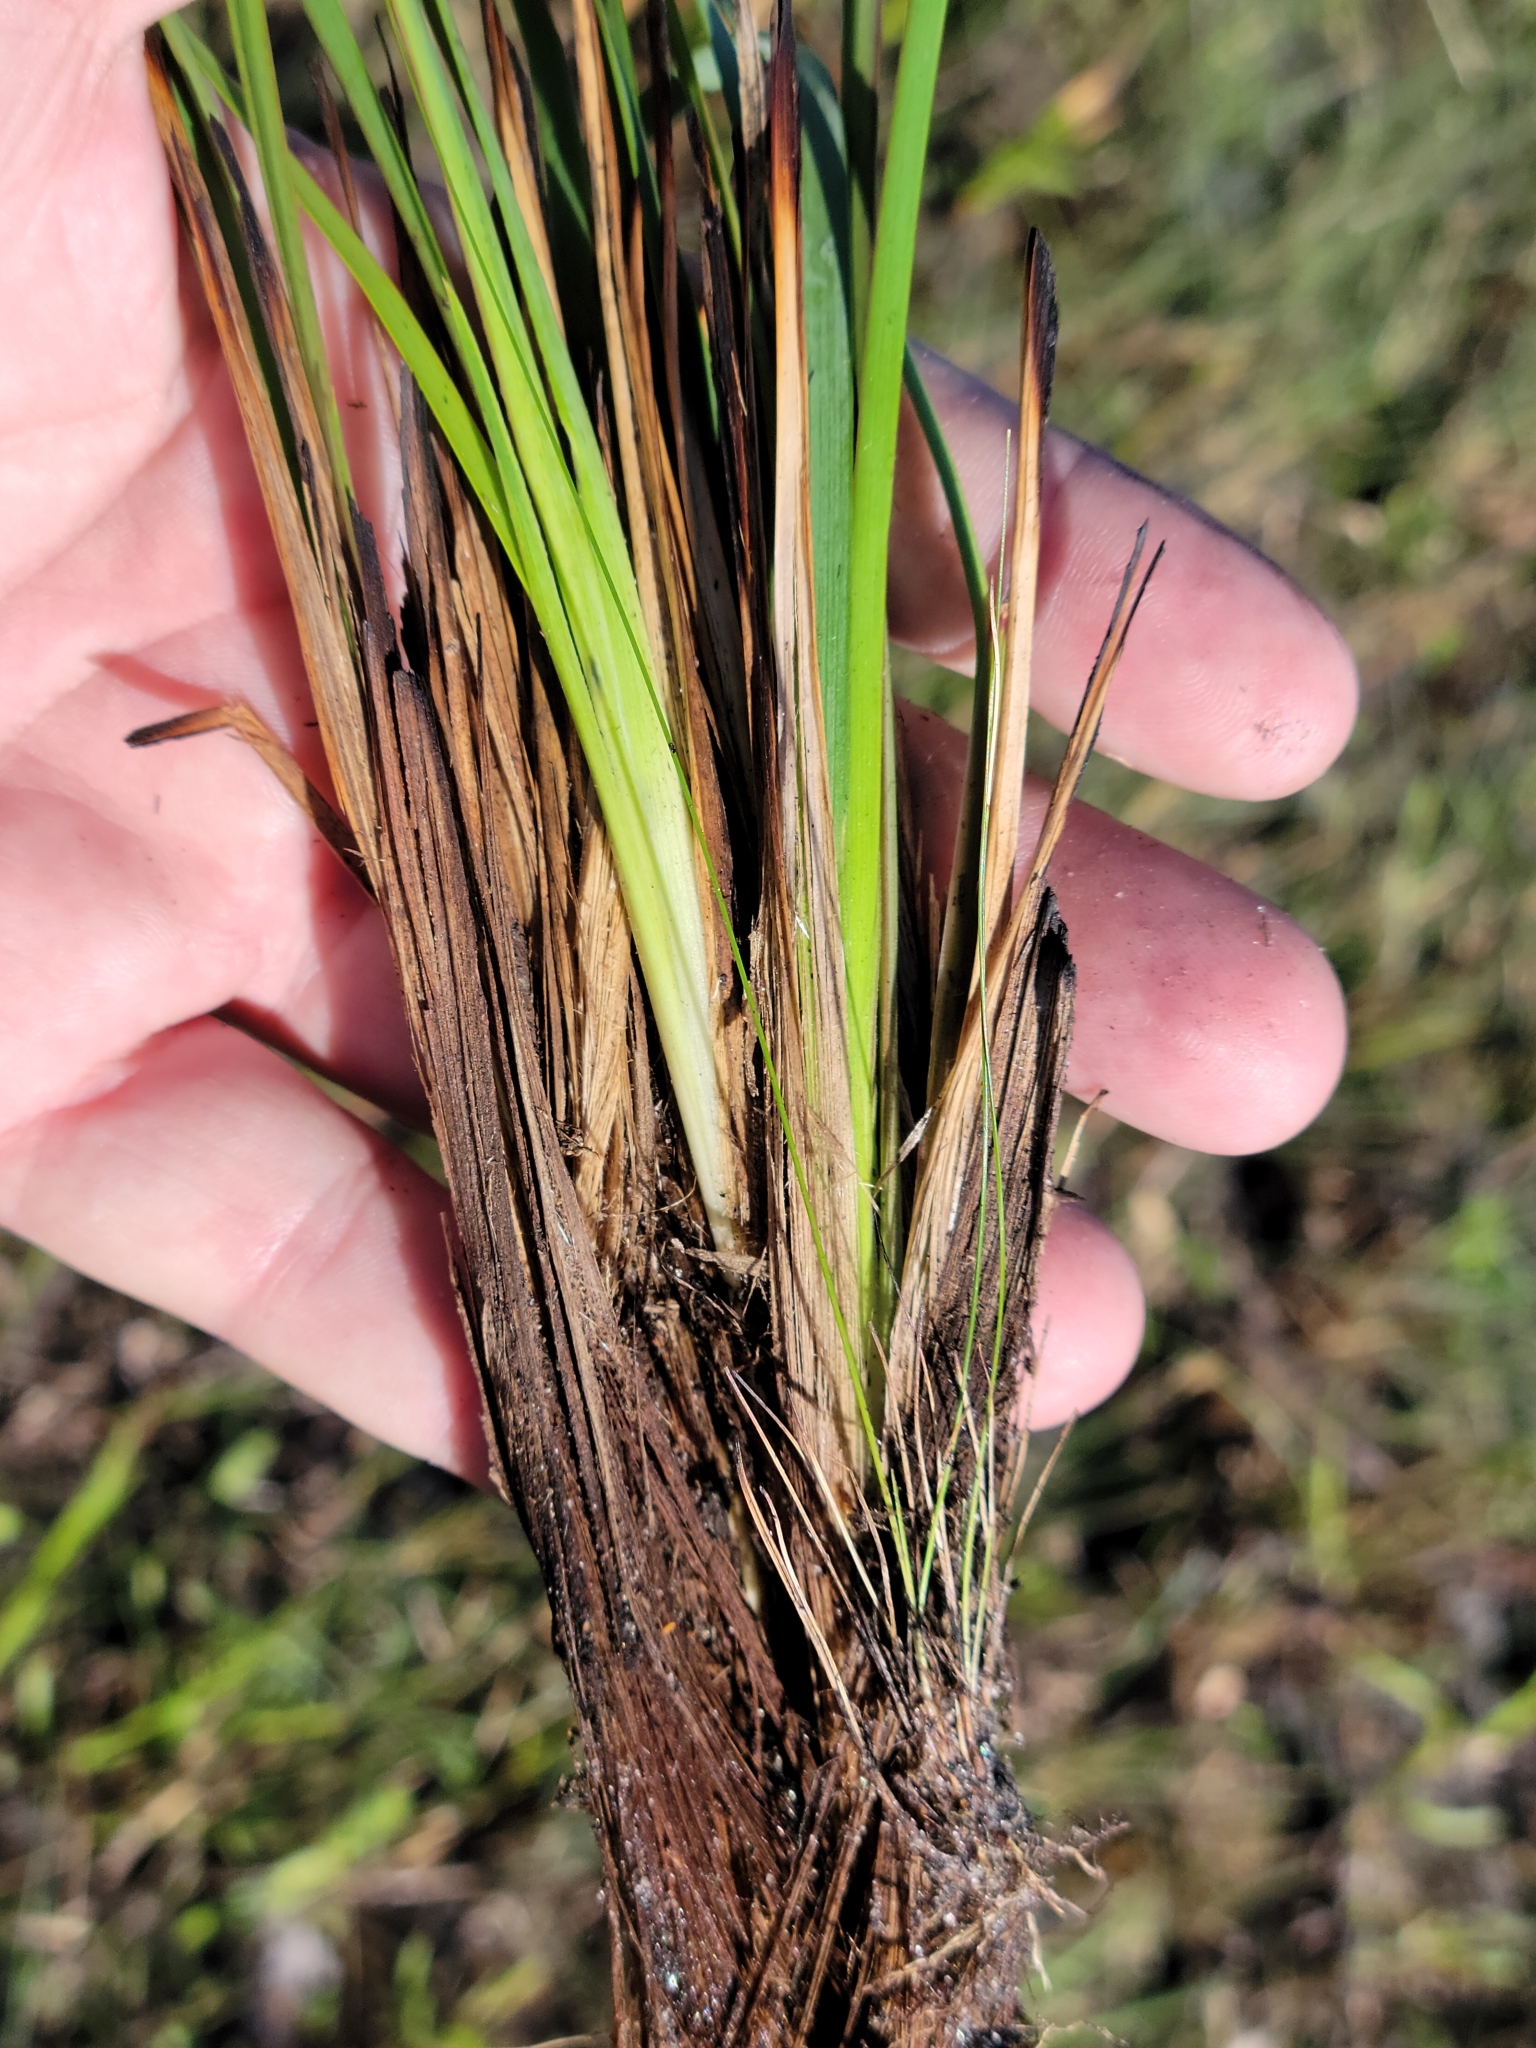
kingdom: Plantae
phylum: Tracheophyta
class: Liliopsida
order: Asparagales
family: Iridaceae
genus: Sisyrinchium
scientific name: Sisyrinchium nashii
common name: Nash's blue-eyed-grass
